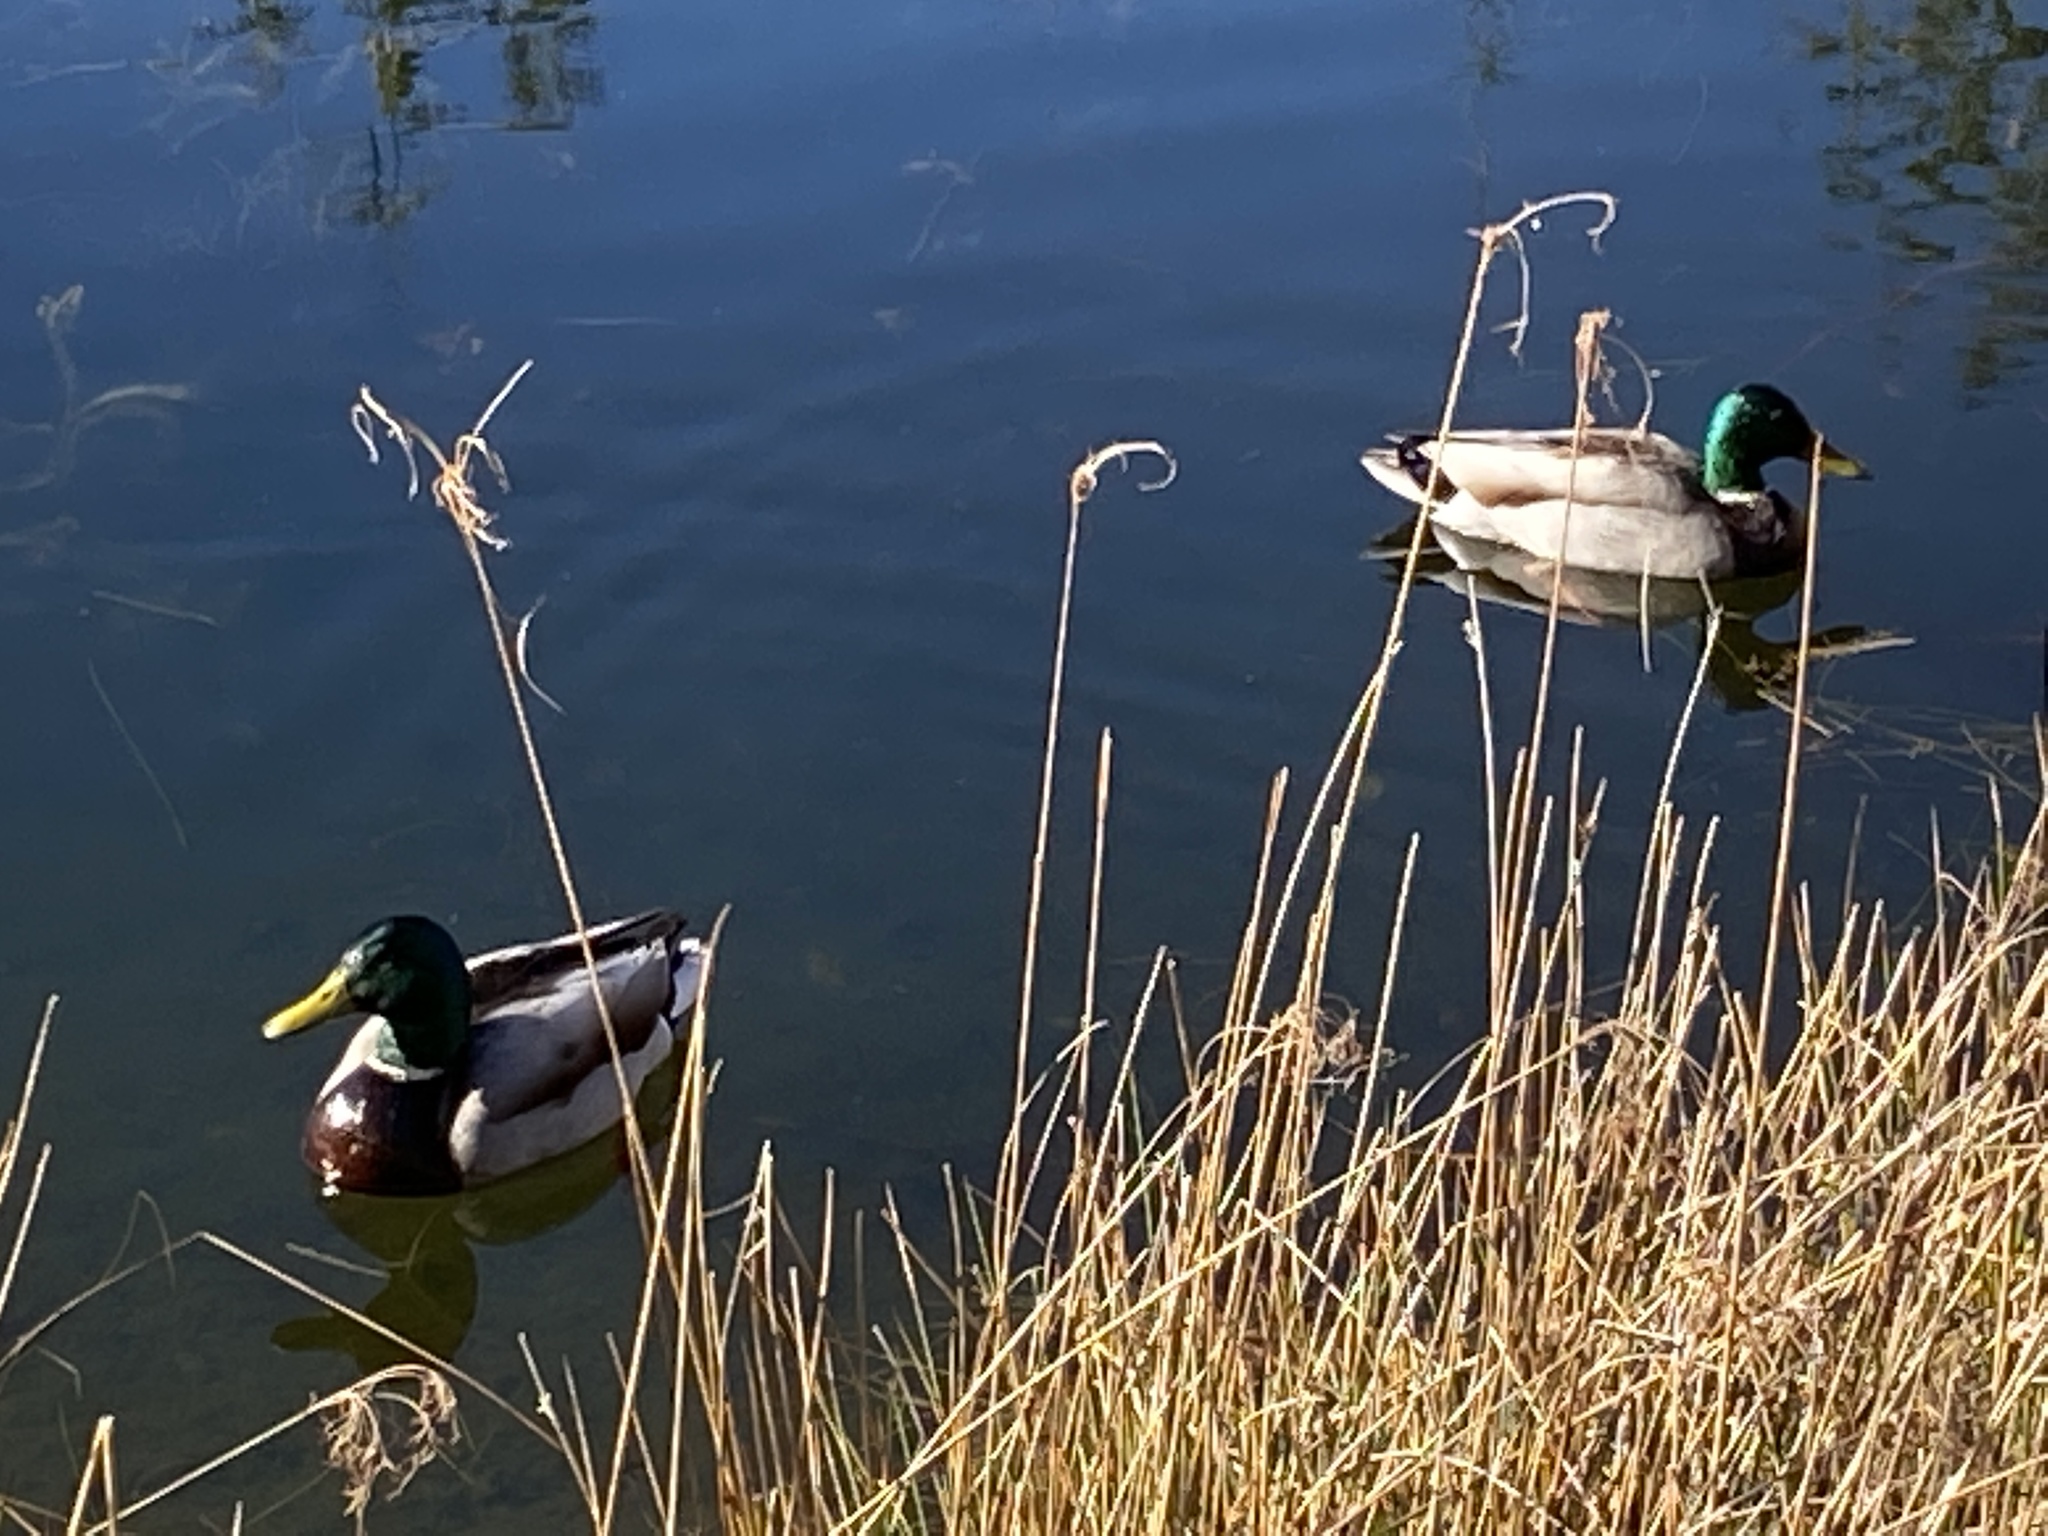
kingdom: Animalia
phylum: Chordata
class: Aves
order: Anseriformes
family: Anatidae
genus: Anas
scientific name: Anas platyrhynchos
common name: Mallard
